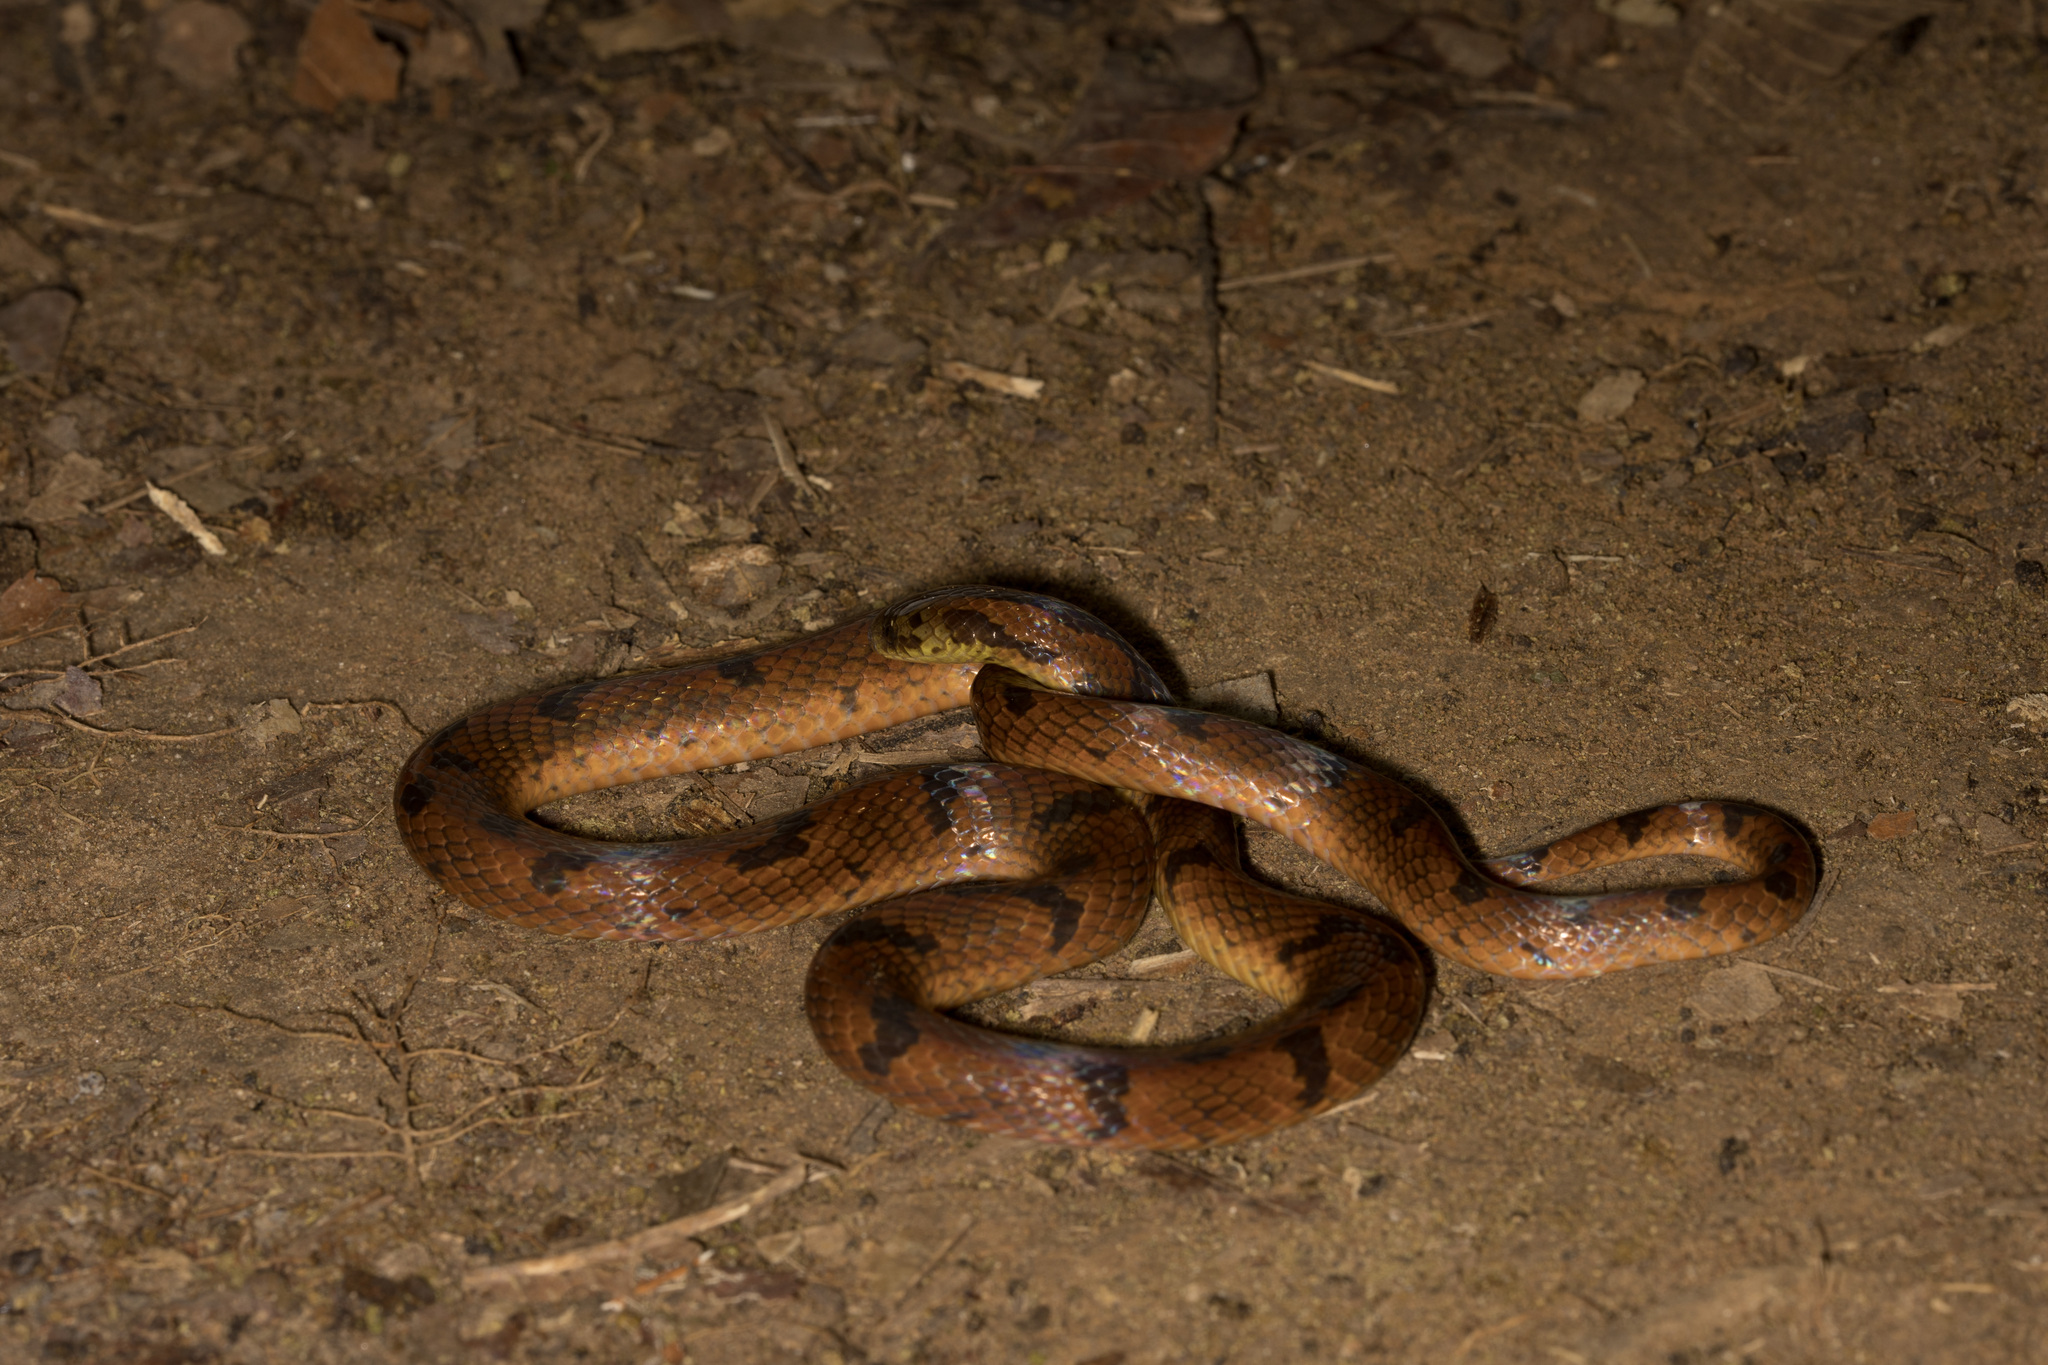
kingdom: Animalia
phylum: Chordata
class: Squamata
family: Colubridae
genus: Xenopholis
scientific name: Xenopholis scalaris
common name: Wucherer's ground snake
